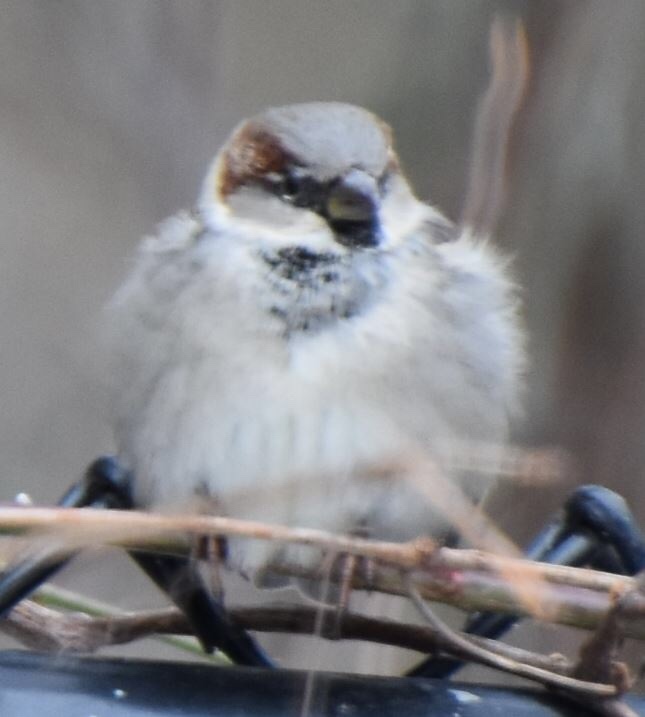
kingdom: Animalia
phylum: Chordata
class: Aves
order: Passeriformes
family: Passeridae
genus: Passer
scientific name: Passer domesticus
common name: House sparrow
